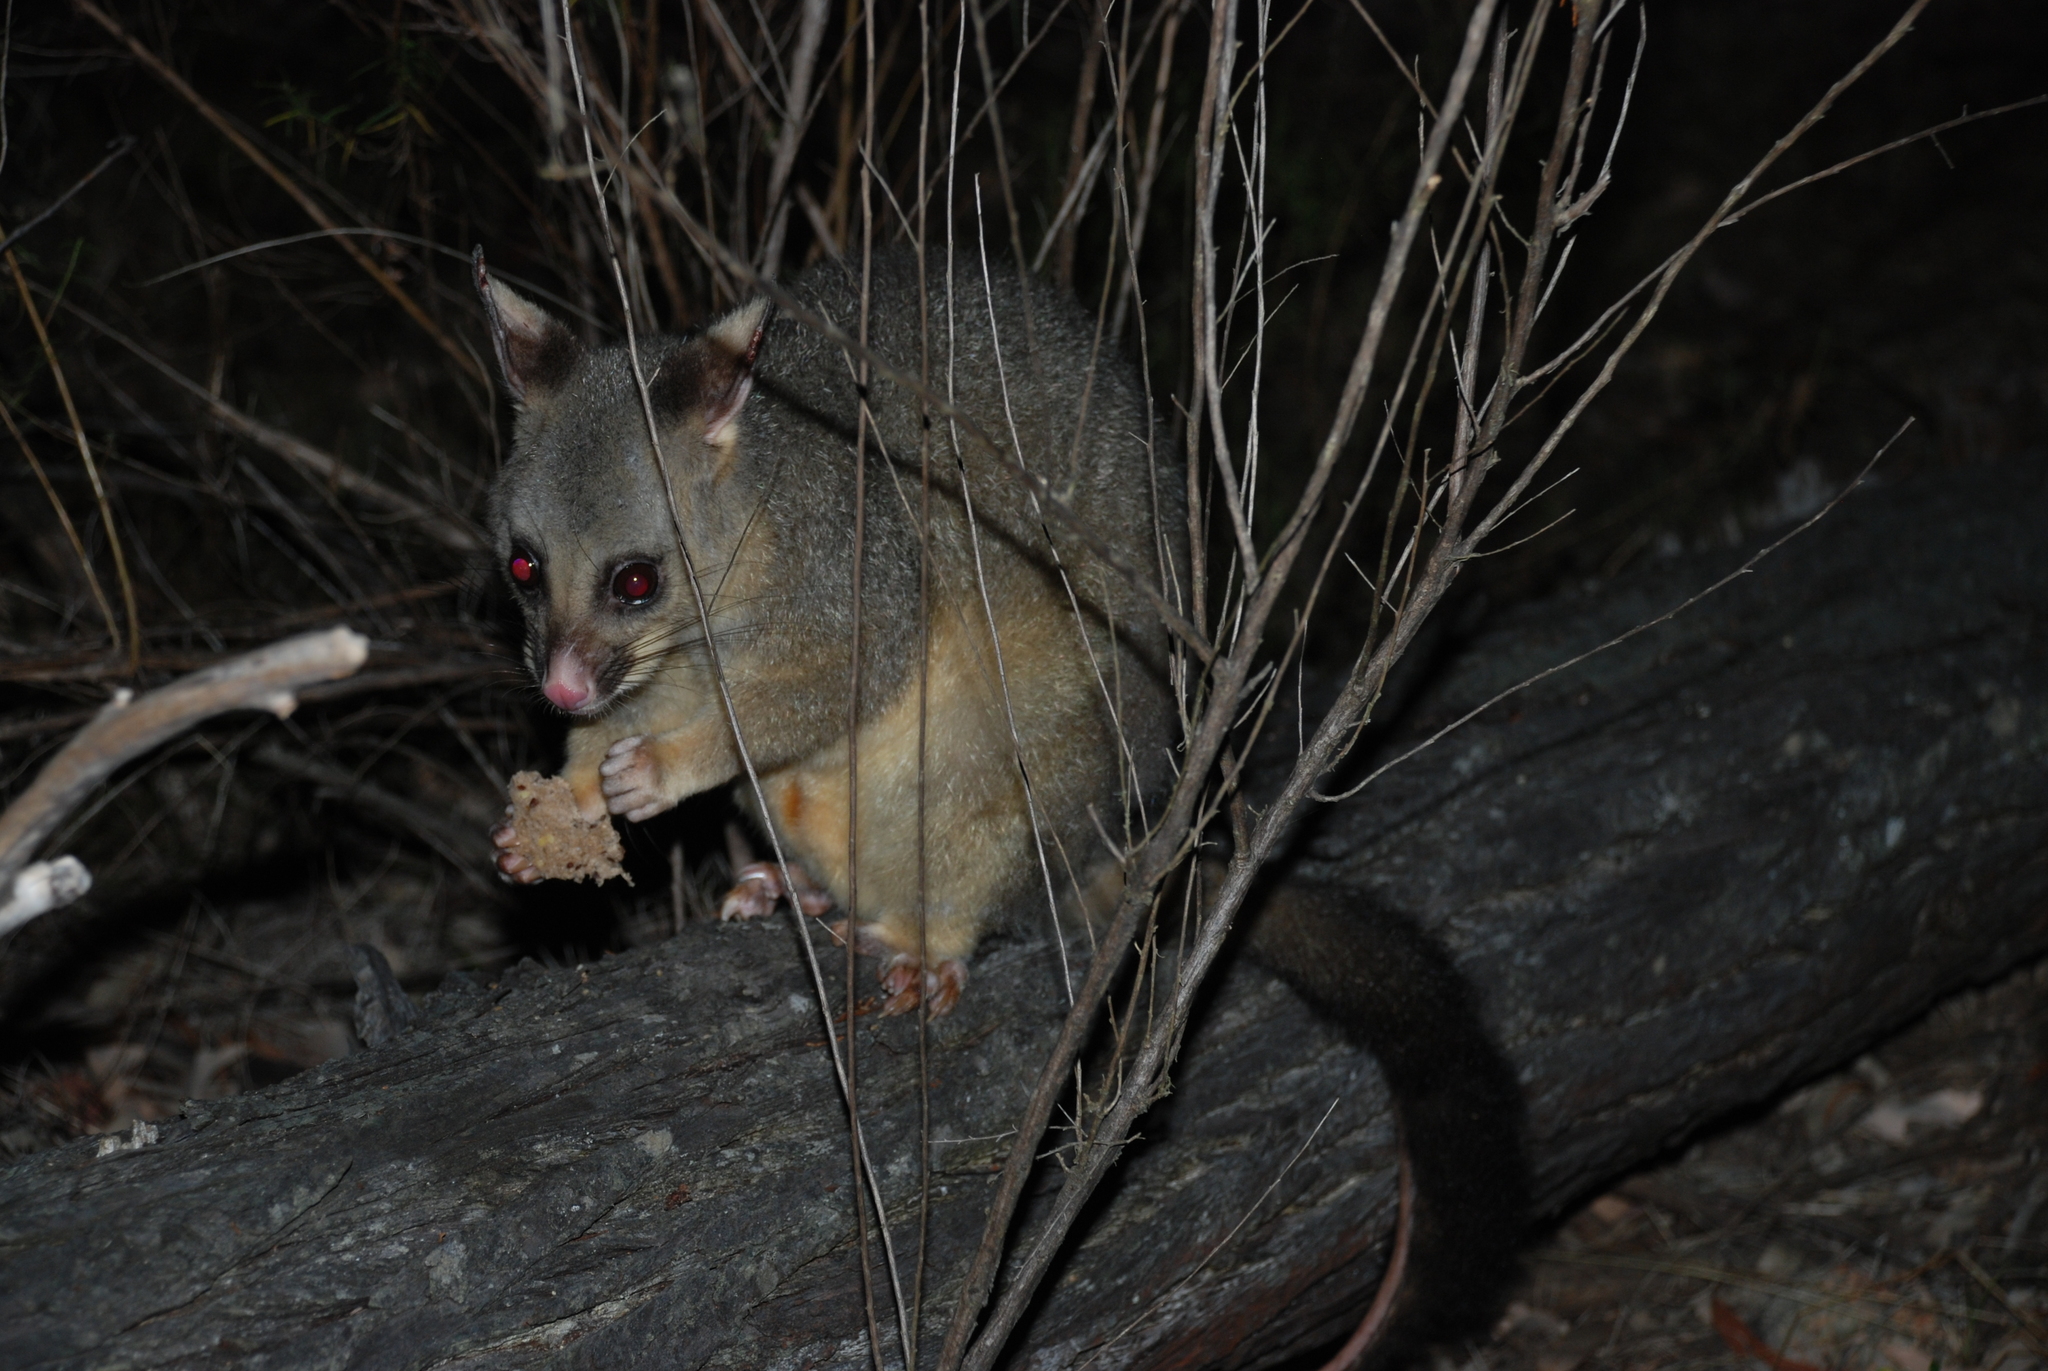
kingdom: Animalia
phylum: Chordata
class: Mammalia
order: Diprotodontia
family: Phalangeridae
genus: Trichosurus
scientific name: Trichosurus vulpecula
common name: Common brushtail
